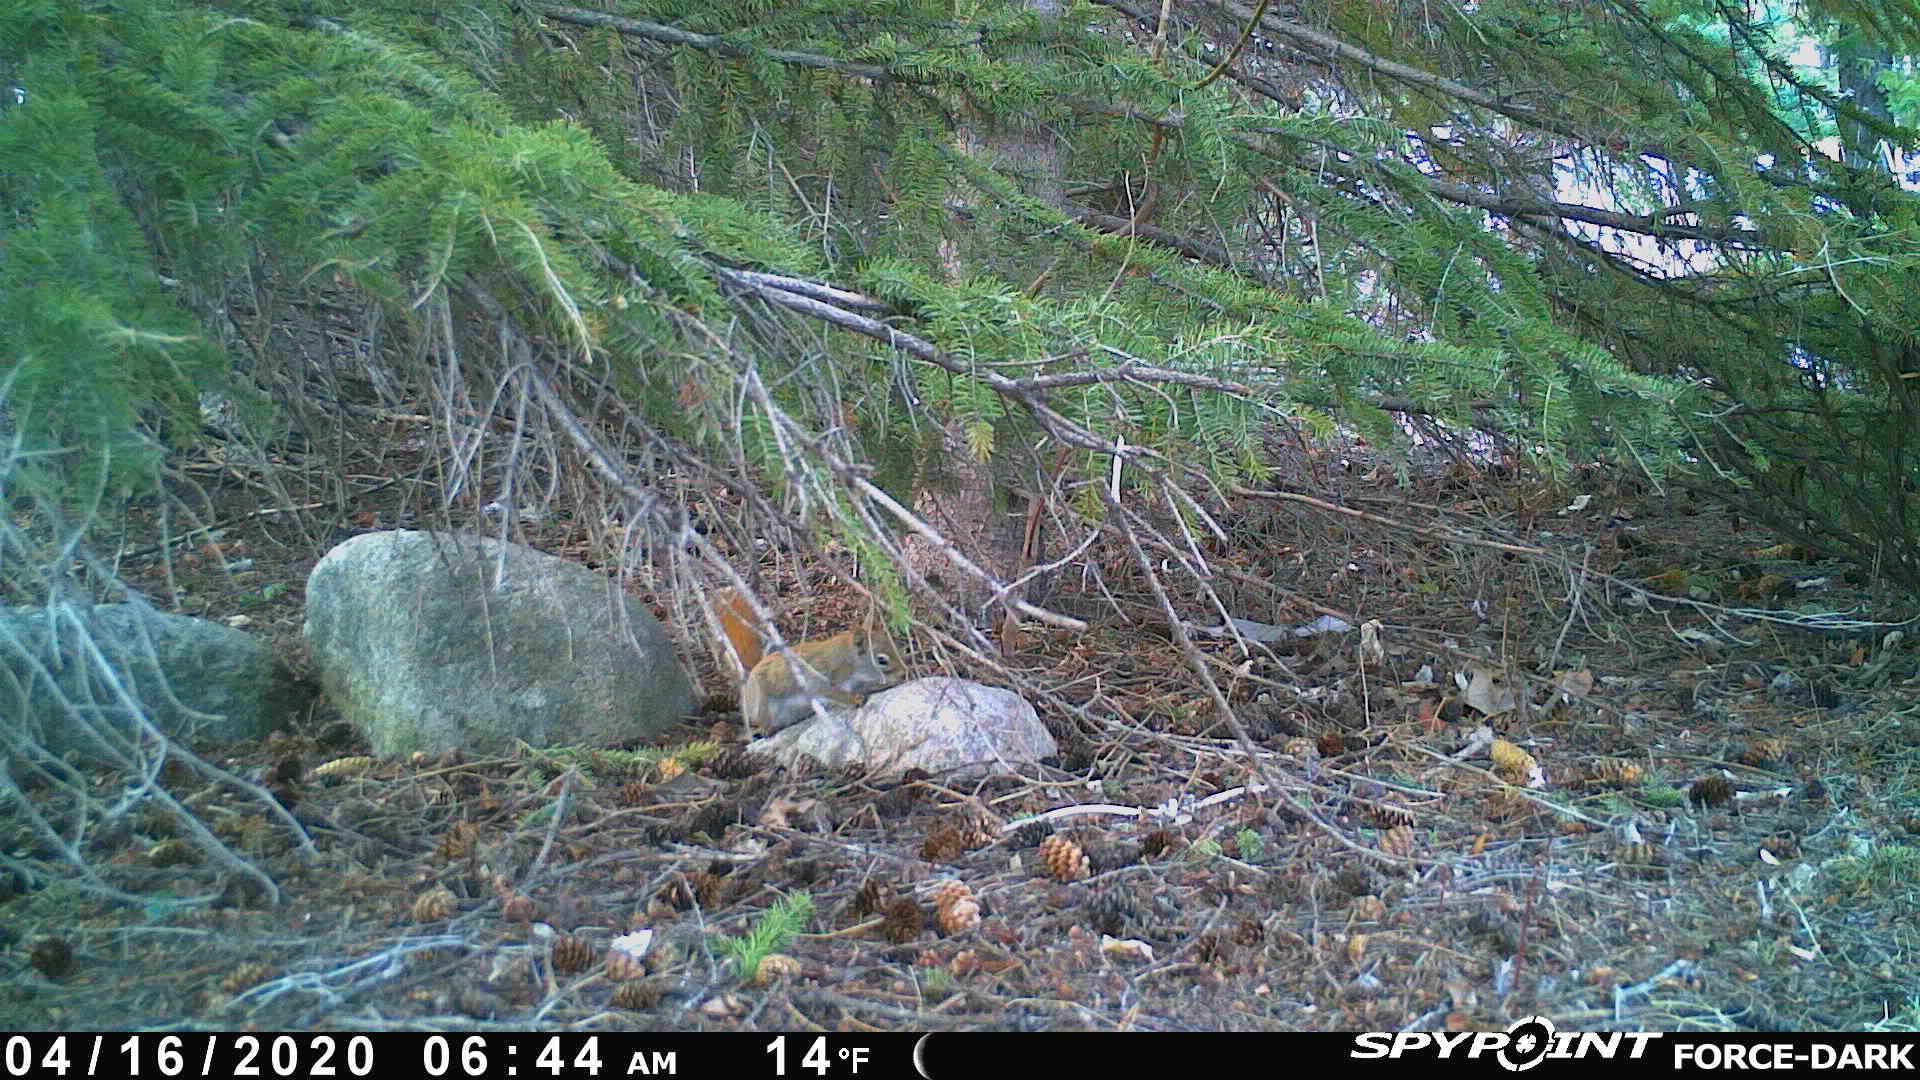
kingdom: Animalia
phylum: Chordata
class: Mammalia
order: Rodentia
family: Sciuridae
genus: Tamiasciurus
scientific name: Tamiasciurus hudsonicus
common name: Red squirrel
